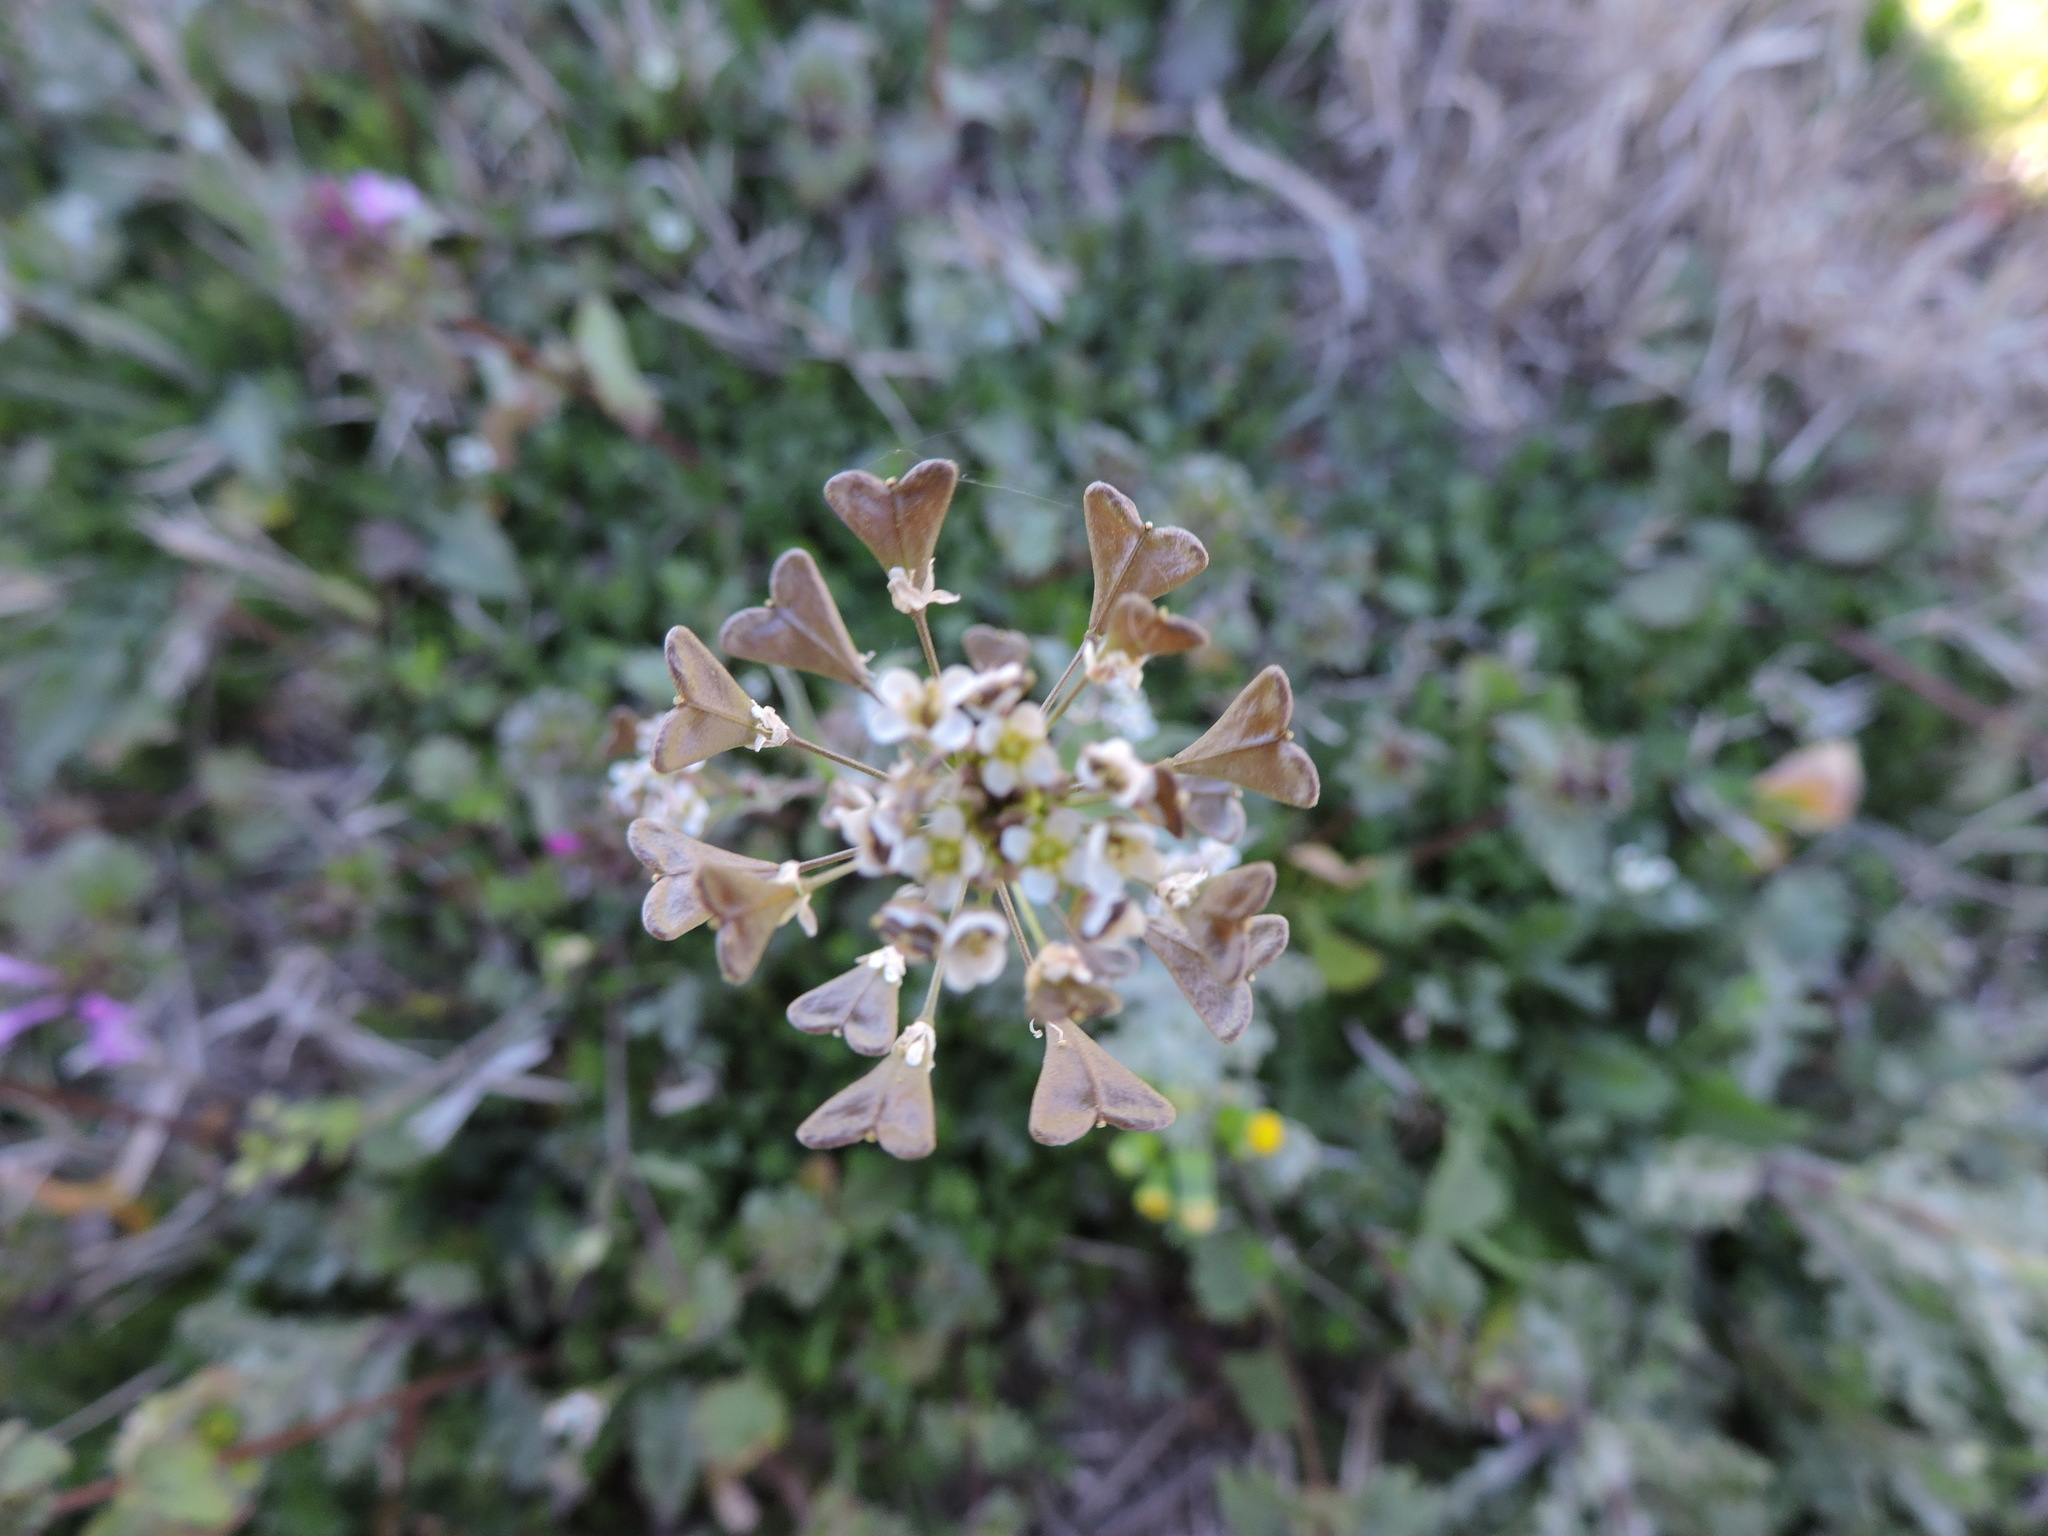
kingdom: Plantae
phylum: Tracheophyta
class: Magnoliopsida
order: Brassicales
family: Brassicaceae
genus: Capsella
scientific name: Capsella bursa-pastoris
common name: Shepherd's purse
